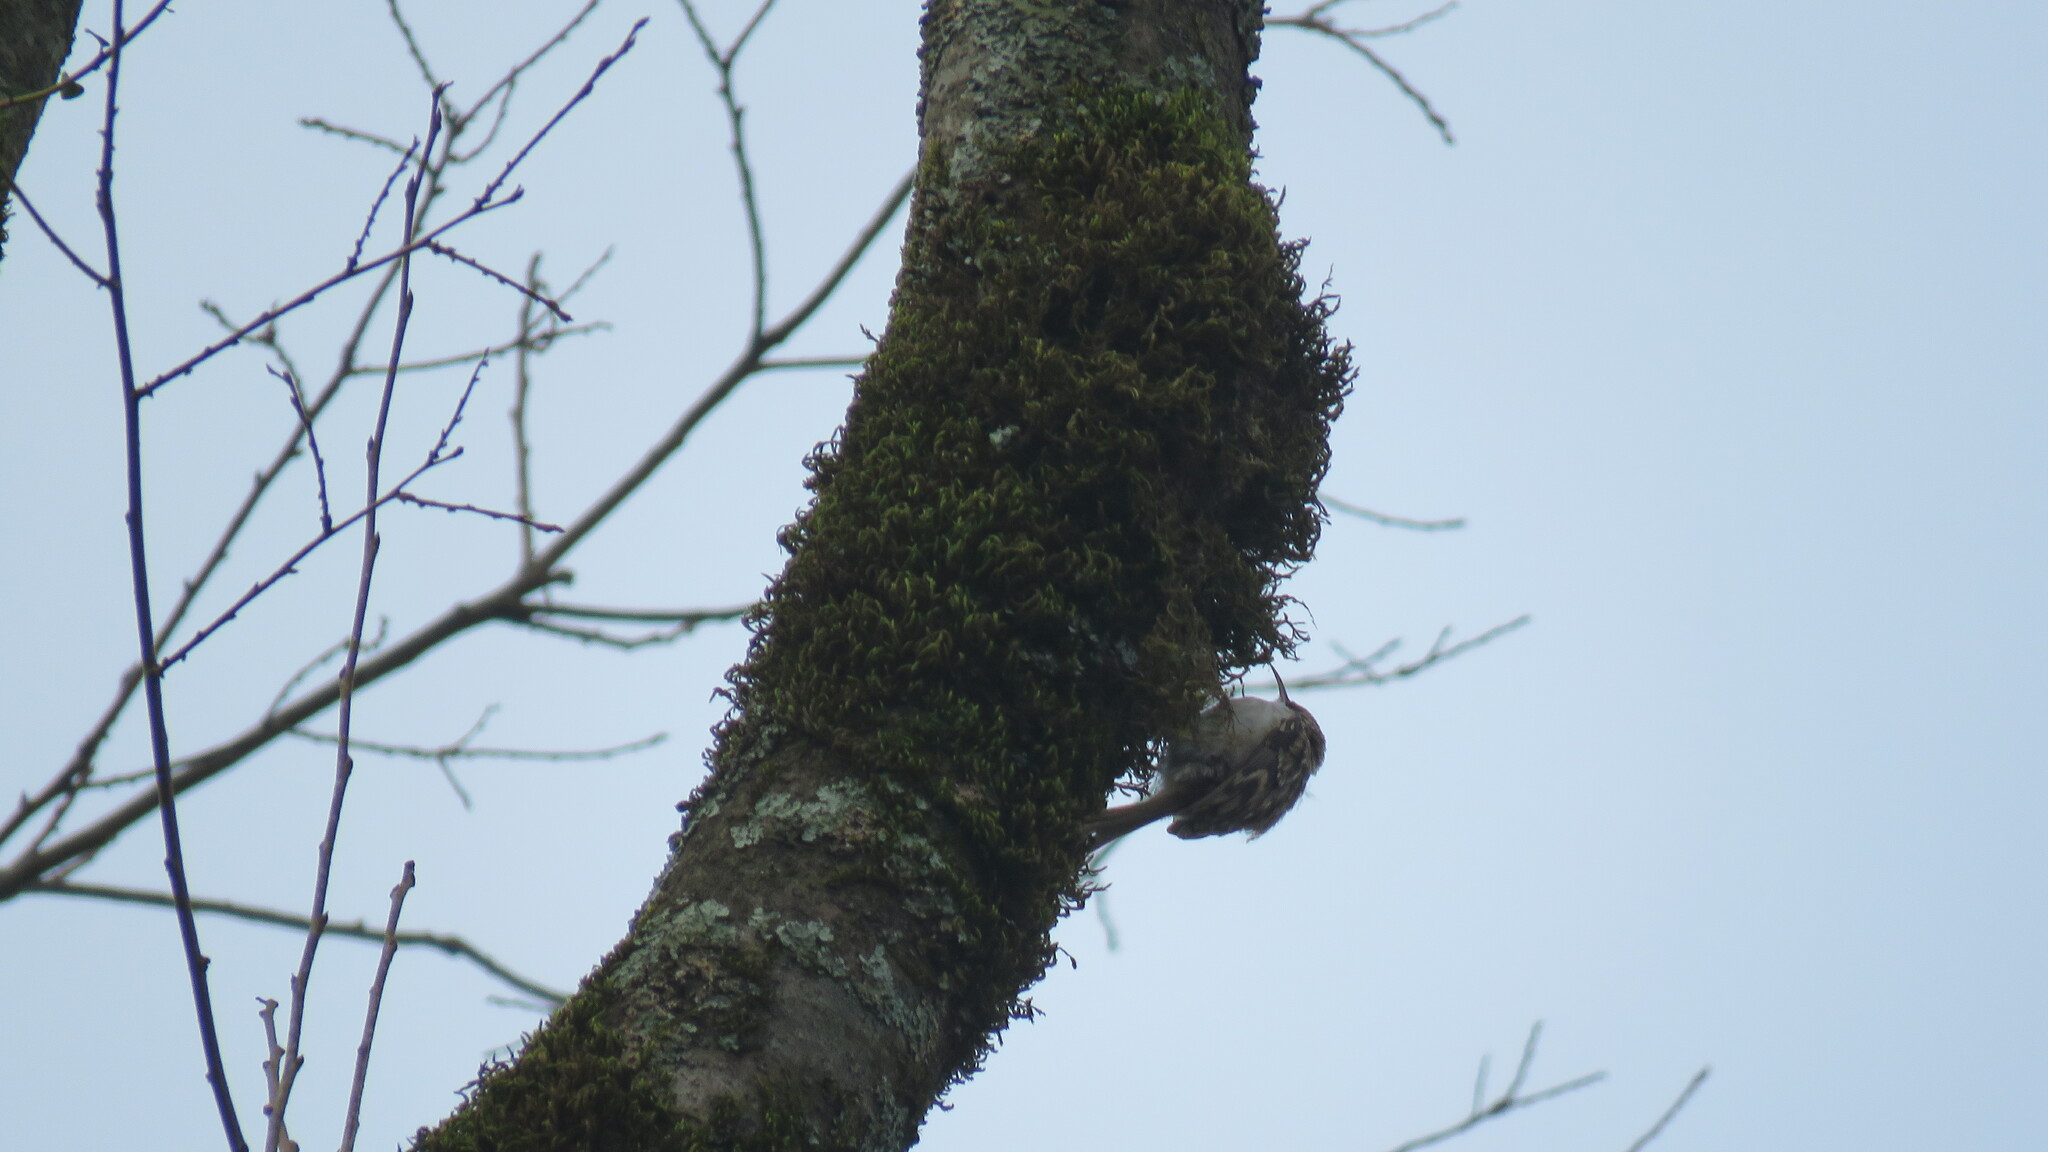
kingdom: Animalia
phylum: Chordata
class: Aves
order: Passeriformes
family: Certhiidae
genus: Certhia
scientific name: Certhia familiaris
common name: Eurasian treecreeper
